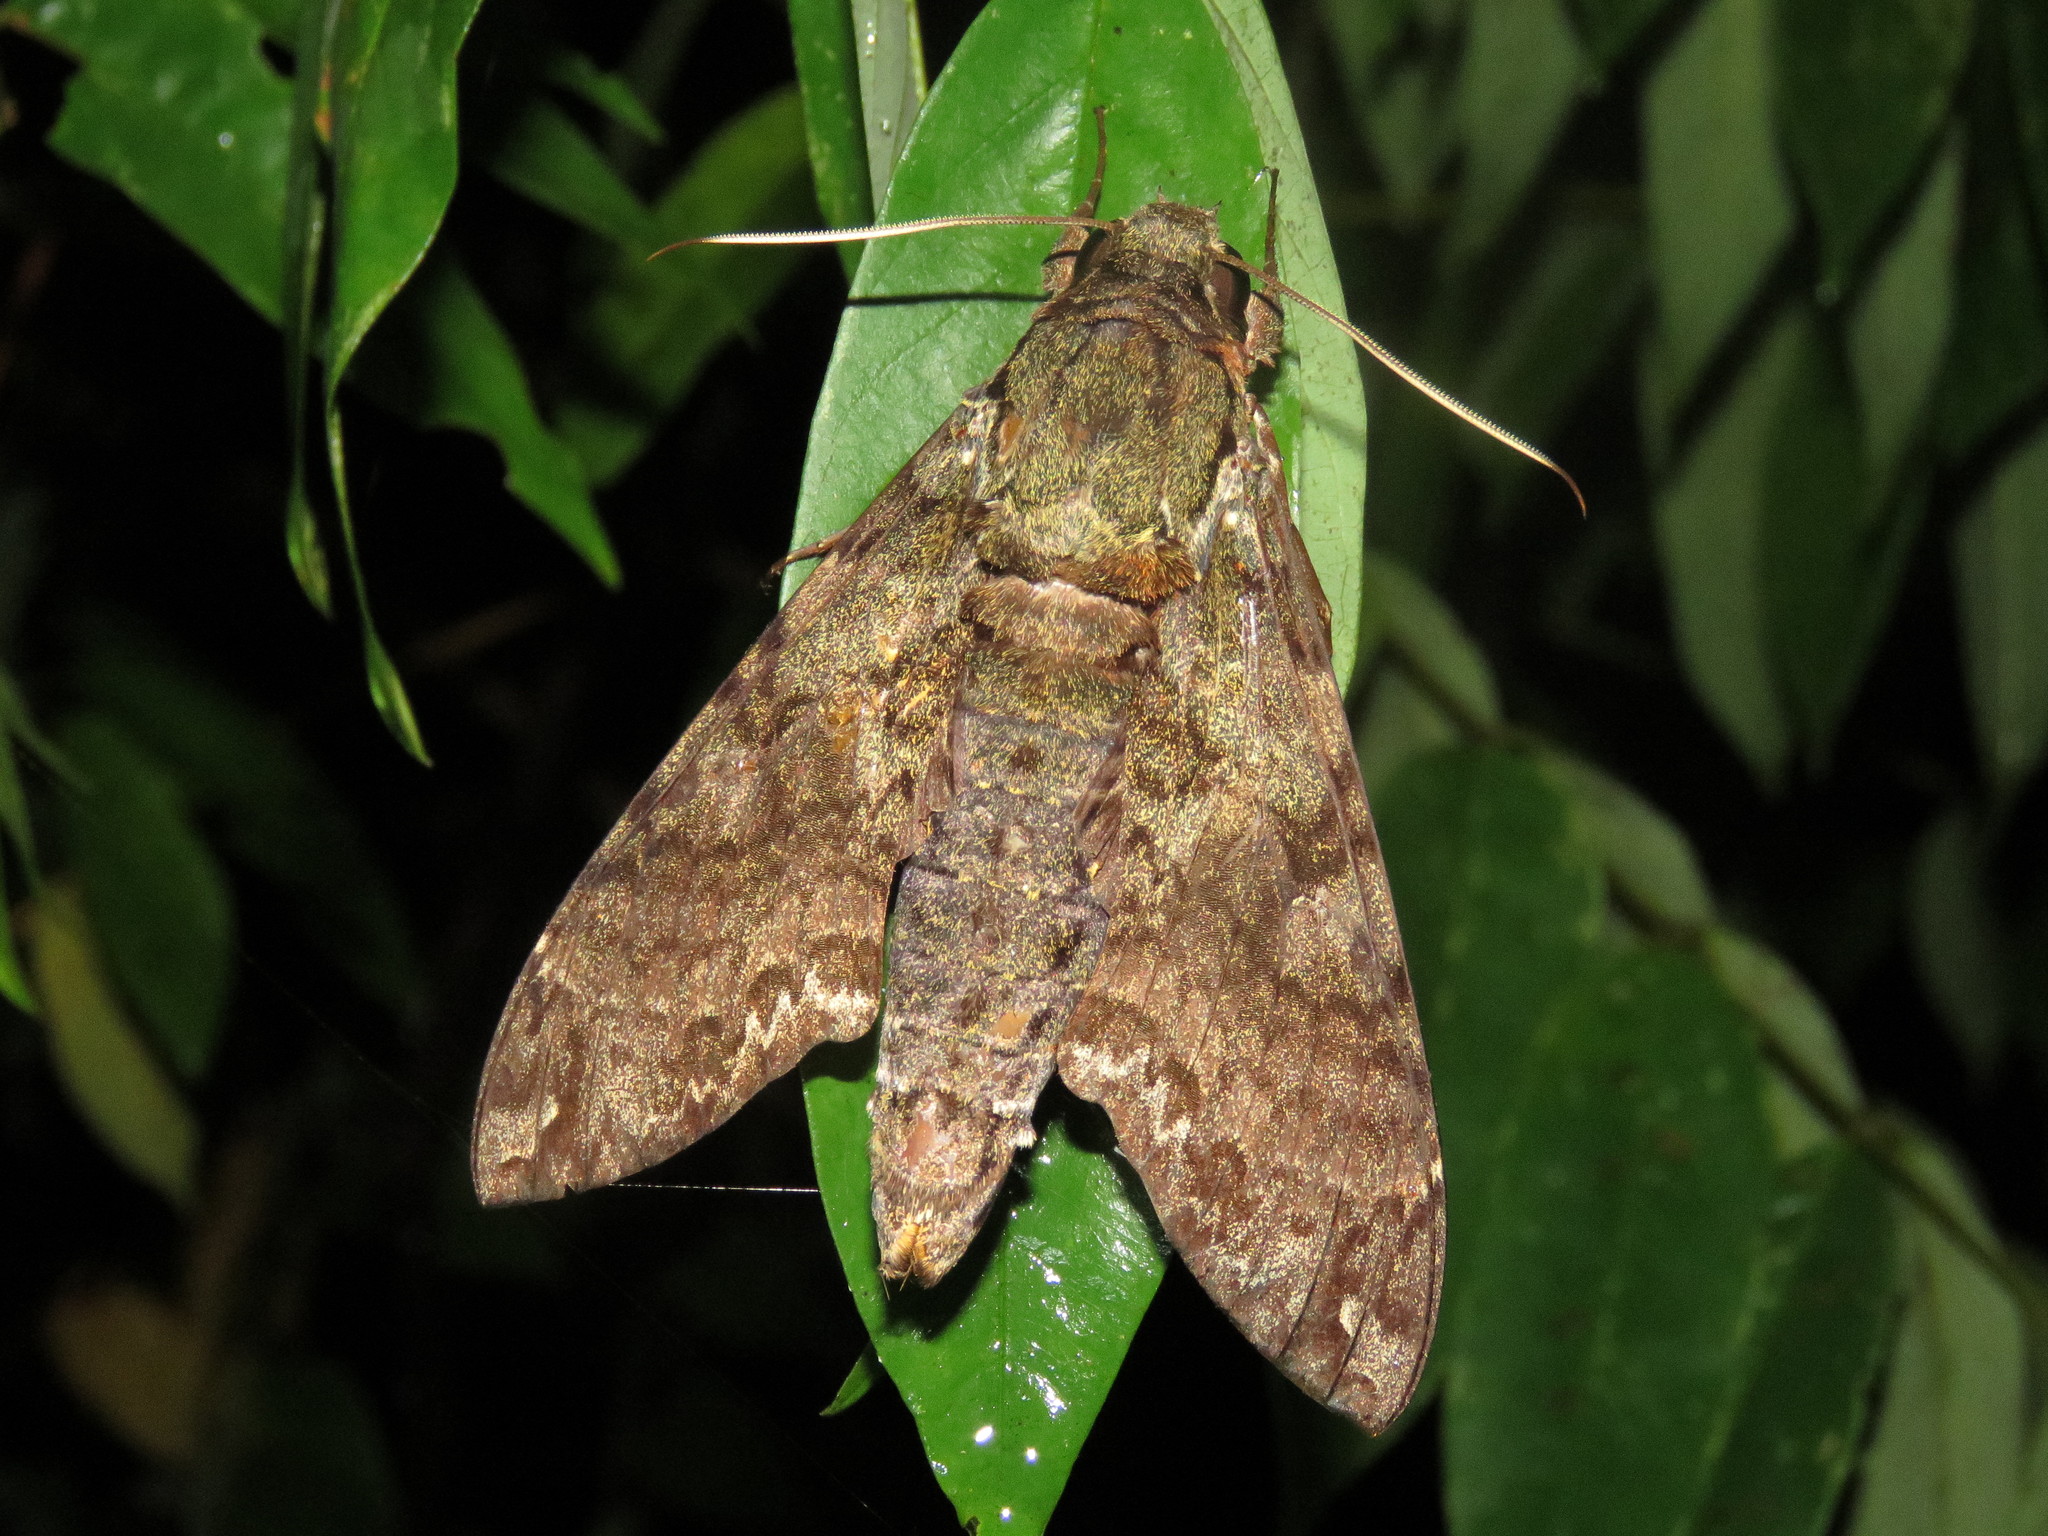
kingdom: Animalia
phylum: Arthropoda
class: Insecta
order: Lepidoptera
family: Sphingidae
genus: Cocytius
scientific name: Cocytius duponchel
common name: Duponchel's sphinx
